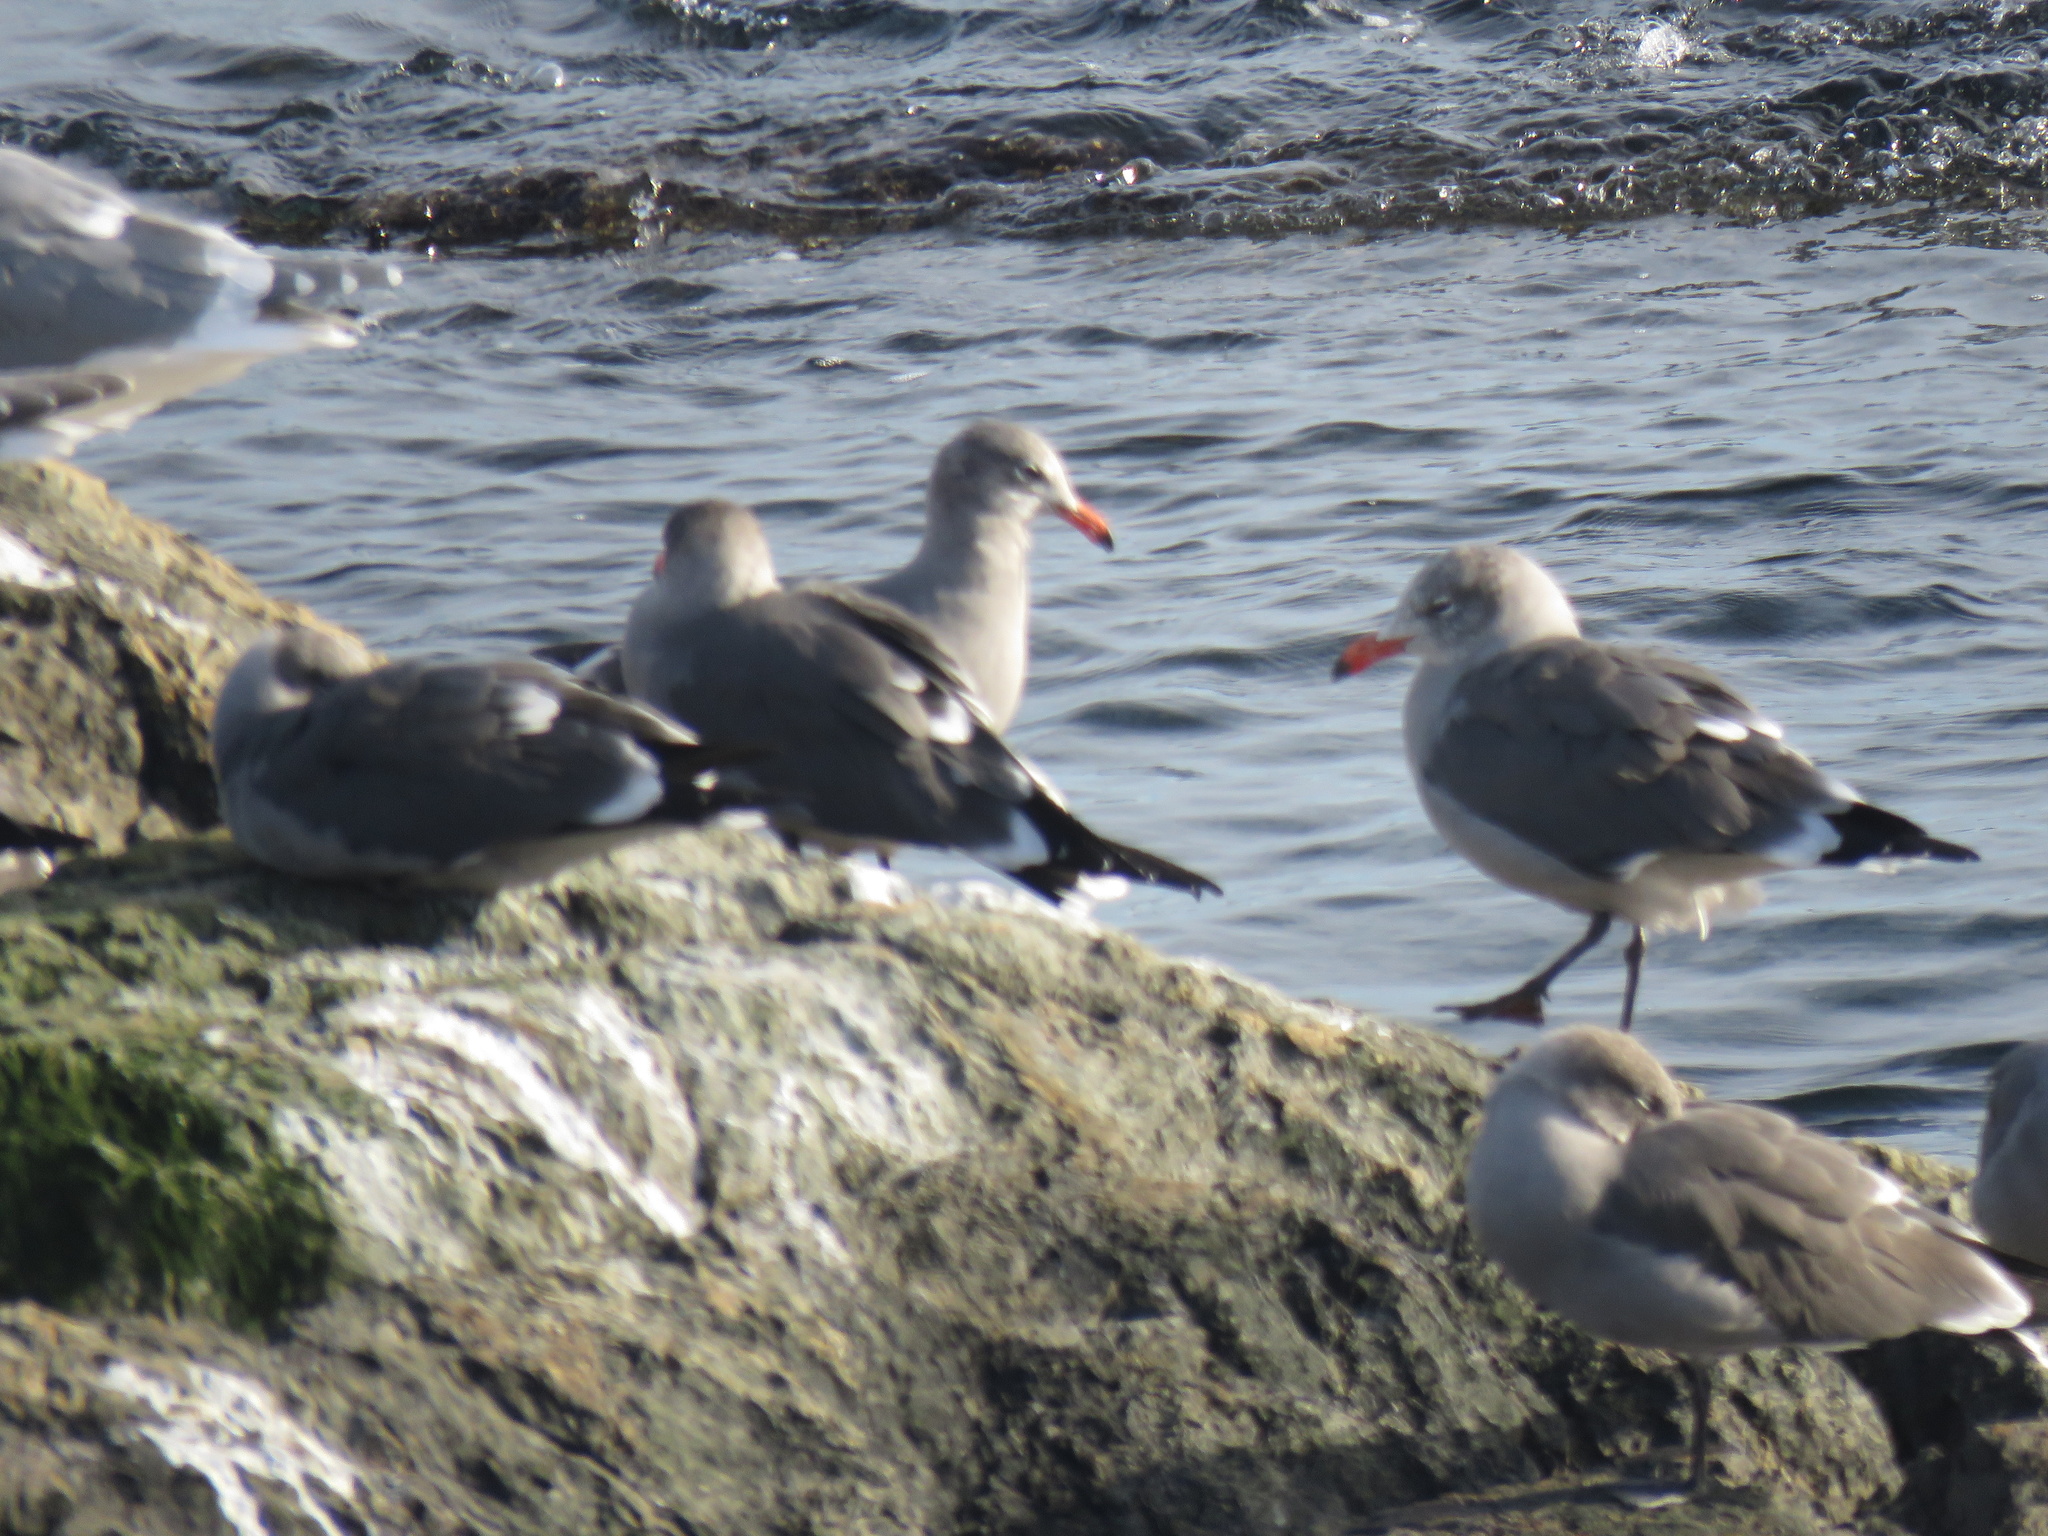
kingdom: Animalia
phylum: Chordata
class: Aves
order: Charadriiformes
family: Laridae
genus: Larus
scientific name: Larus heermanni
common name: Heermann's gull
